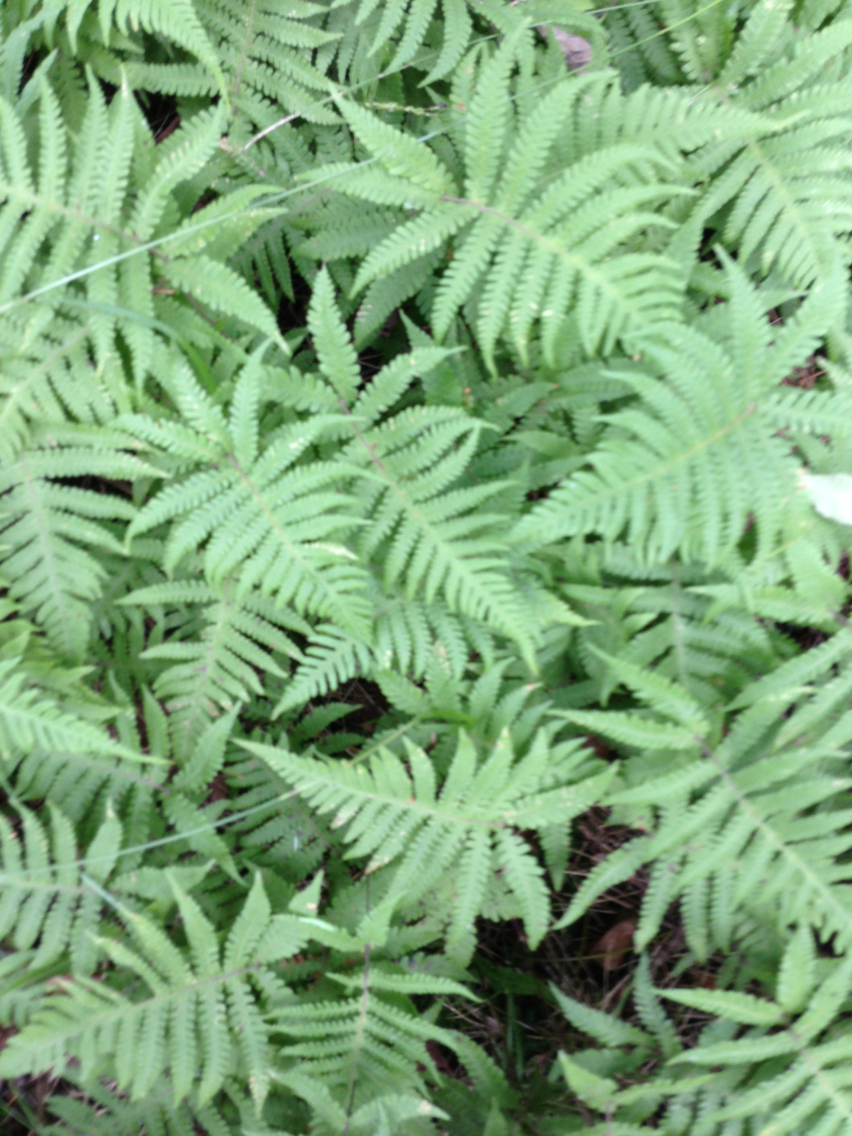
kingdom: Plantae
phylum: Tracheophyta
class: Polypodiopsida
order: Polypodiales
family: Thelypteridaceae
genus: Phegopteris
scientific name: Phegopteris connectilis
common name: Beech fern
